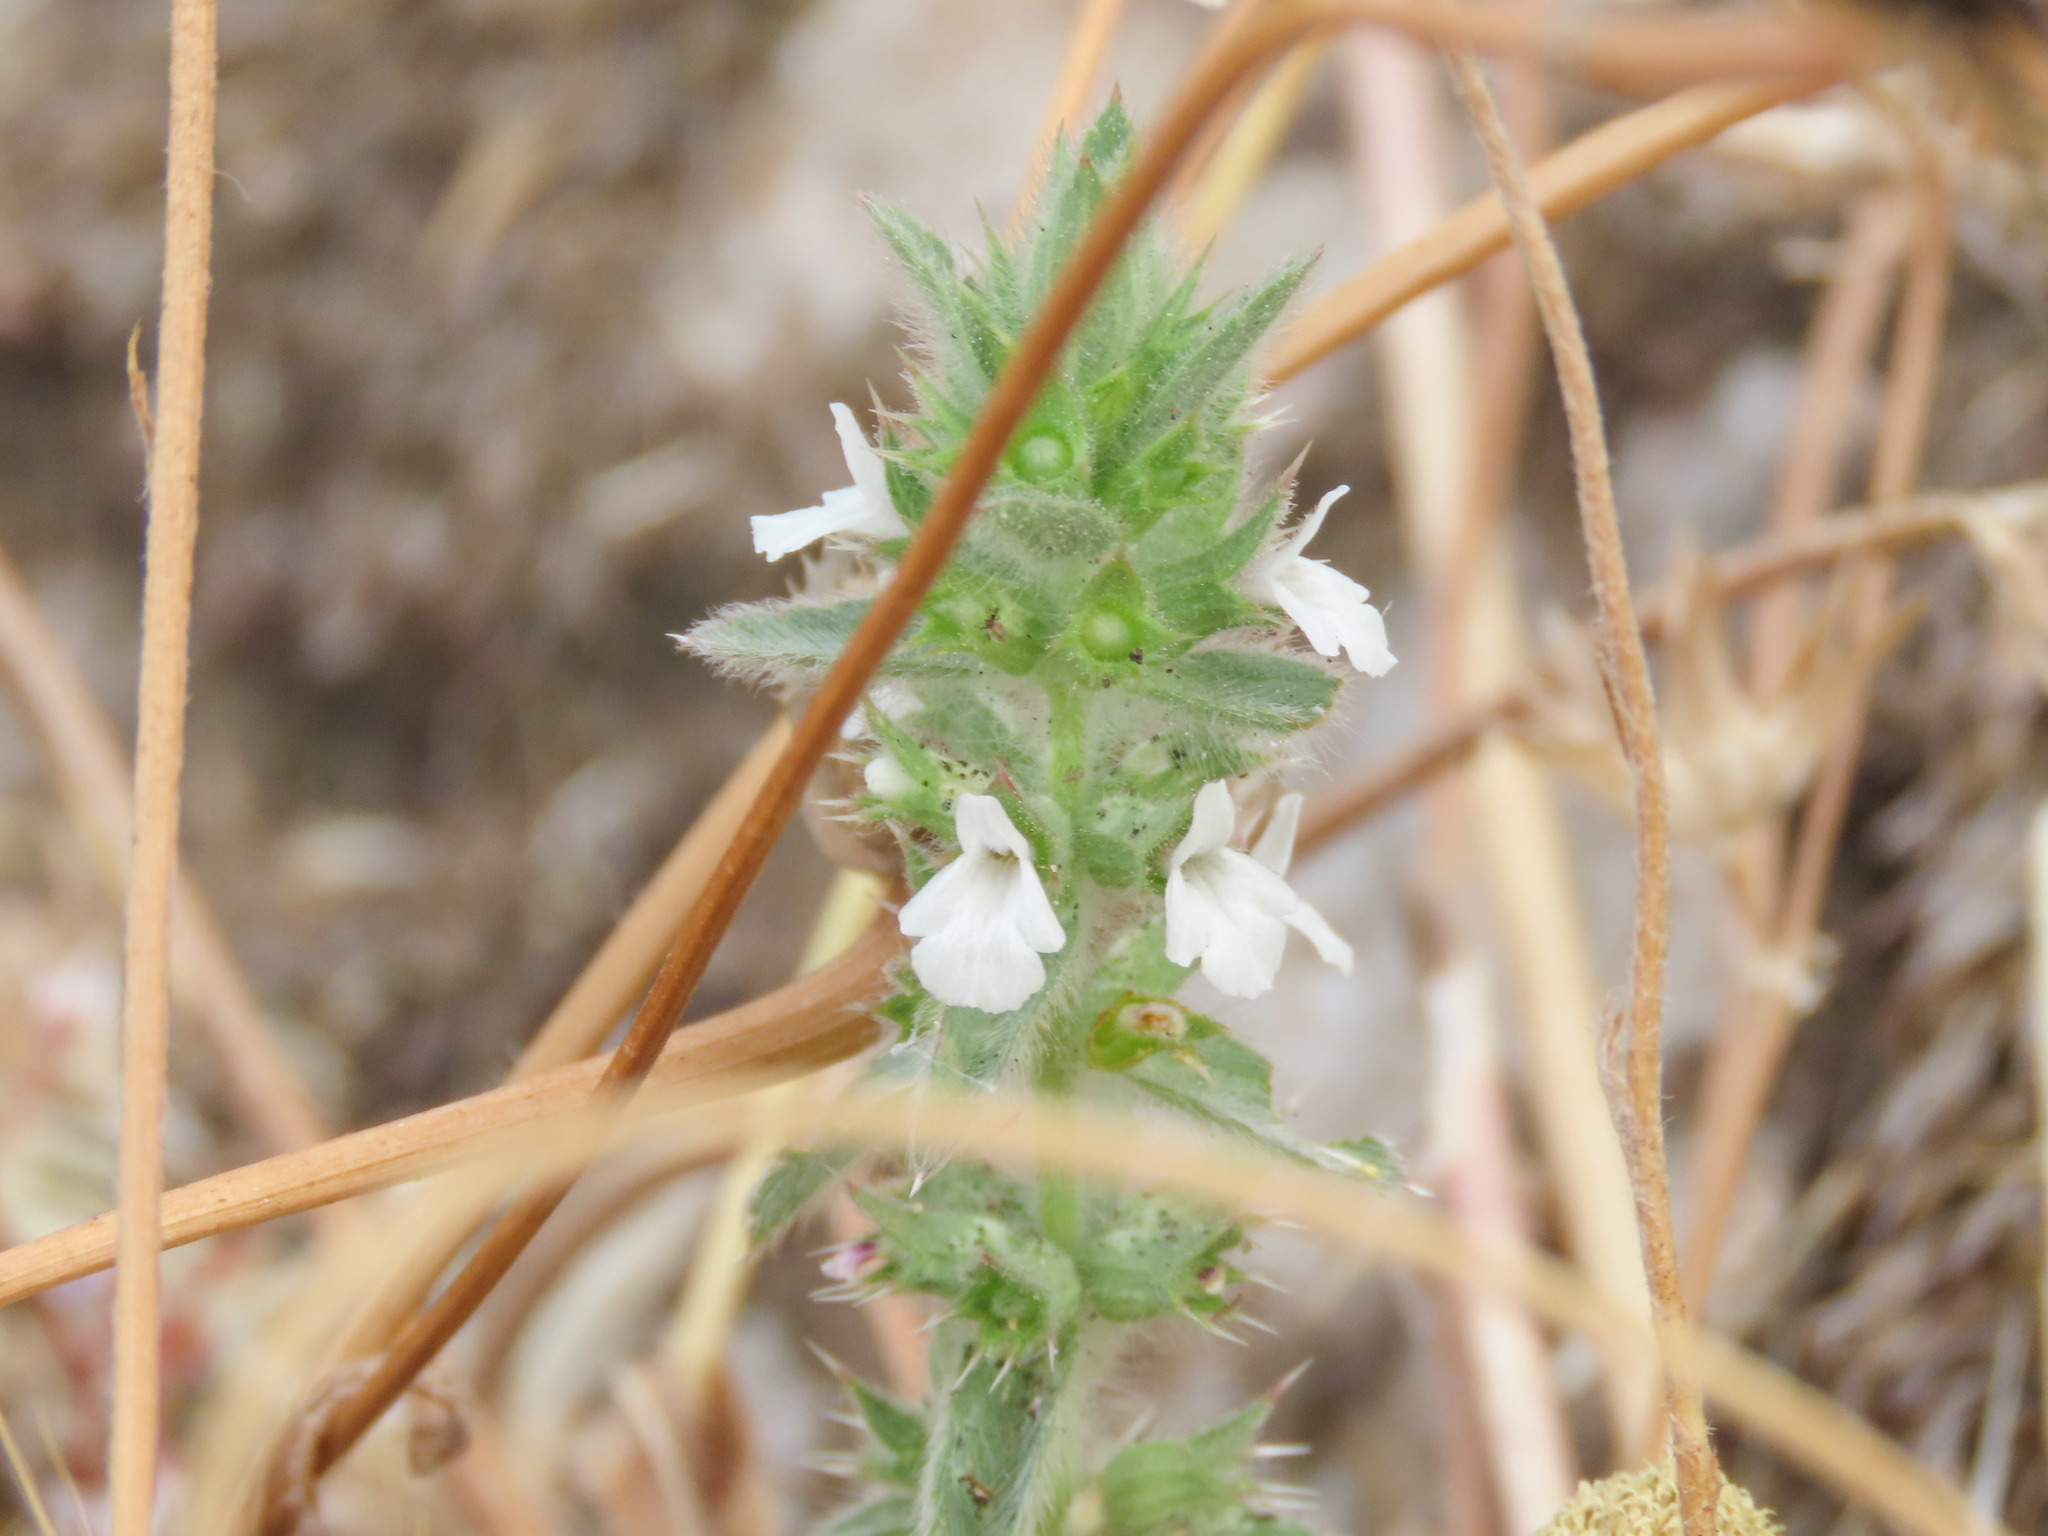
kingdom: Plantae
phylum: Tracheophyta
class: Magnoliopsida
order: Lamiales
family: Lamiaceae
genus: Sideritis
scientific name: Sideritis romana
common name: Simplebeak ironwort
